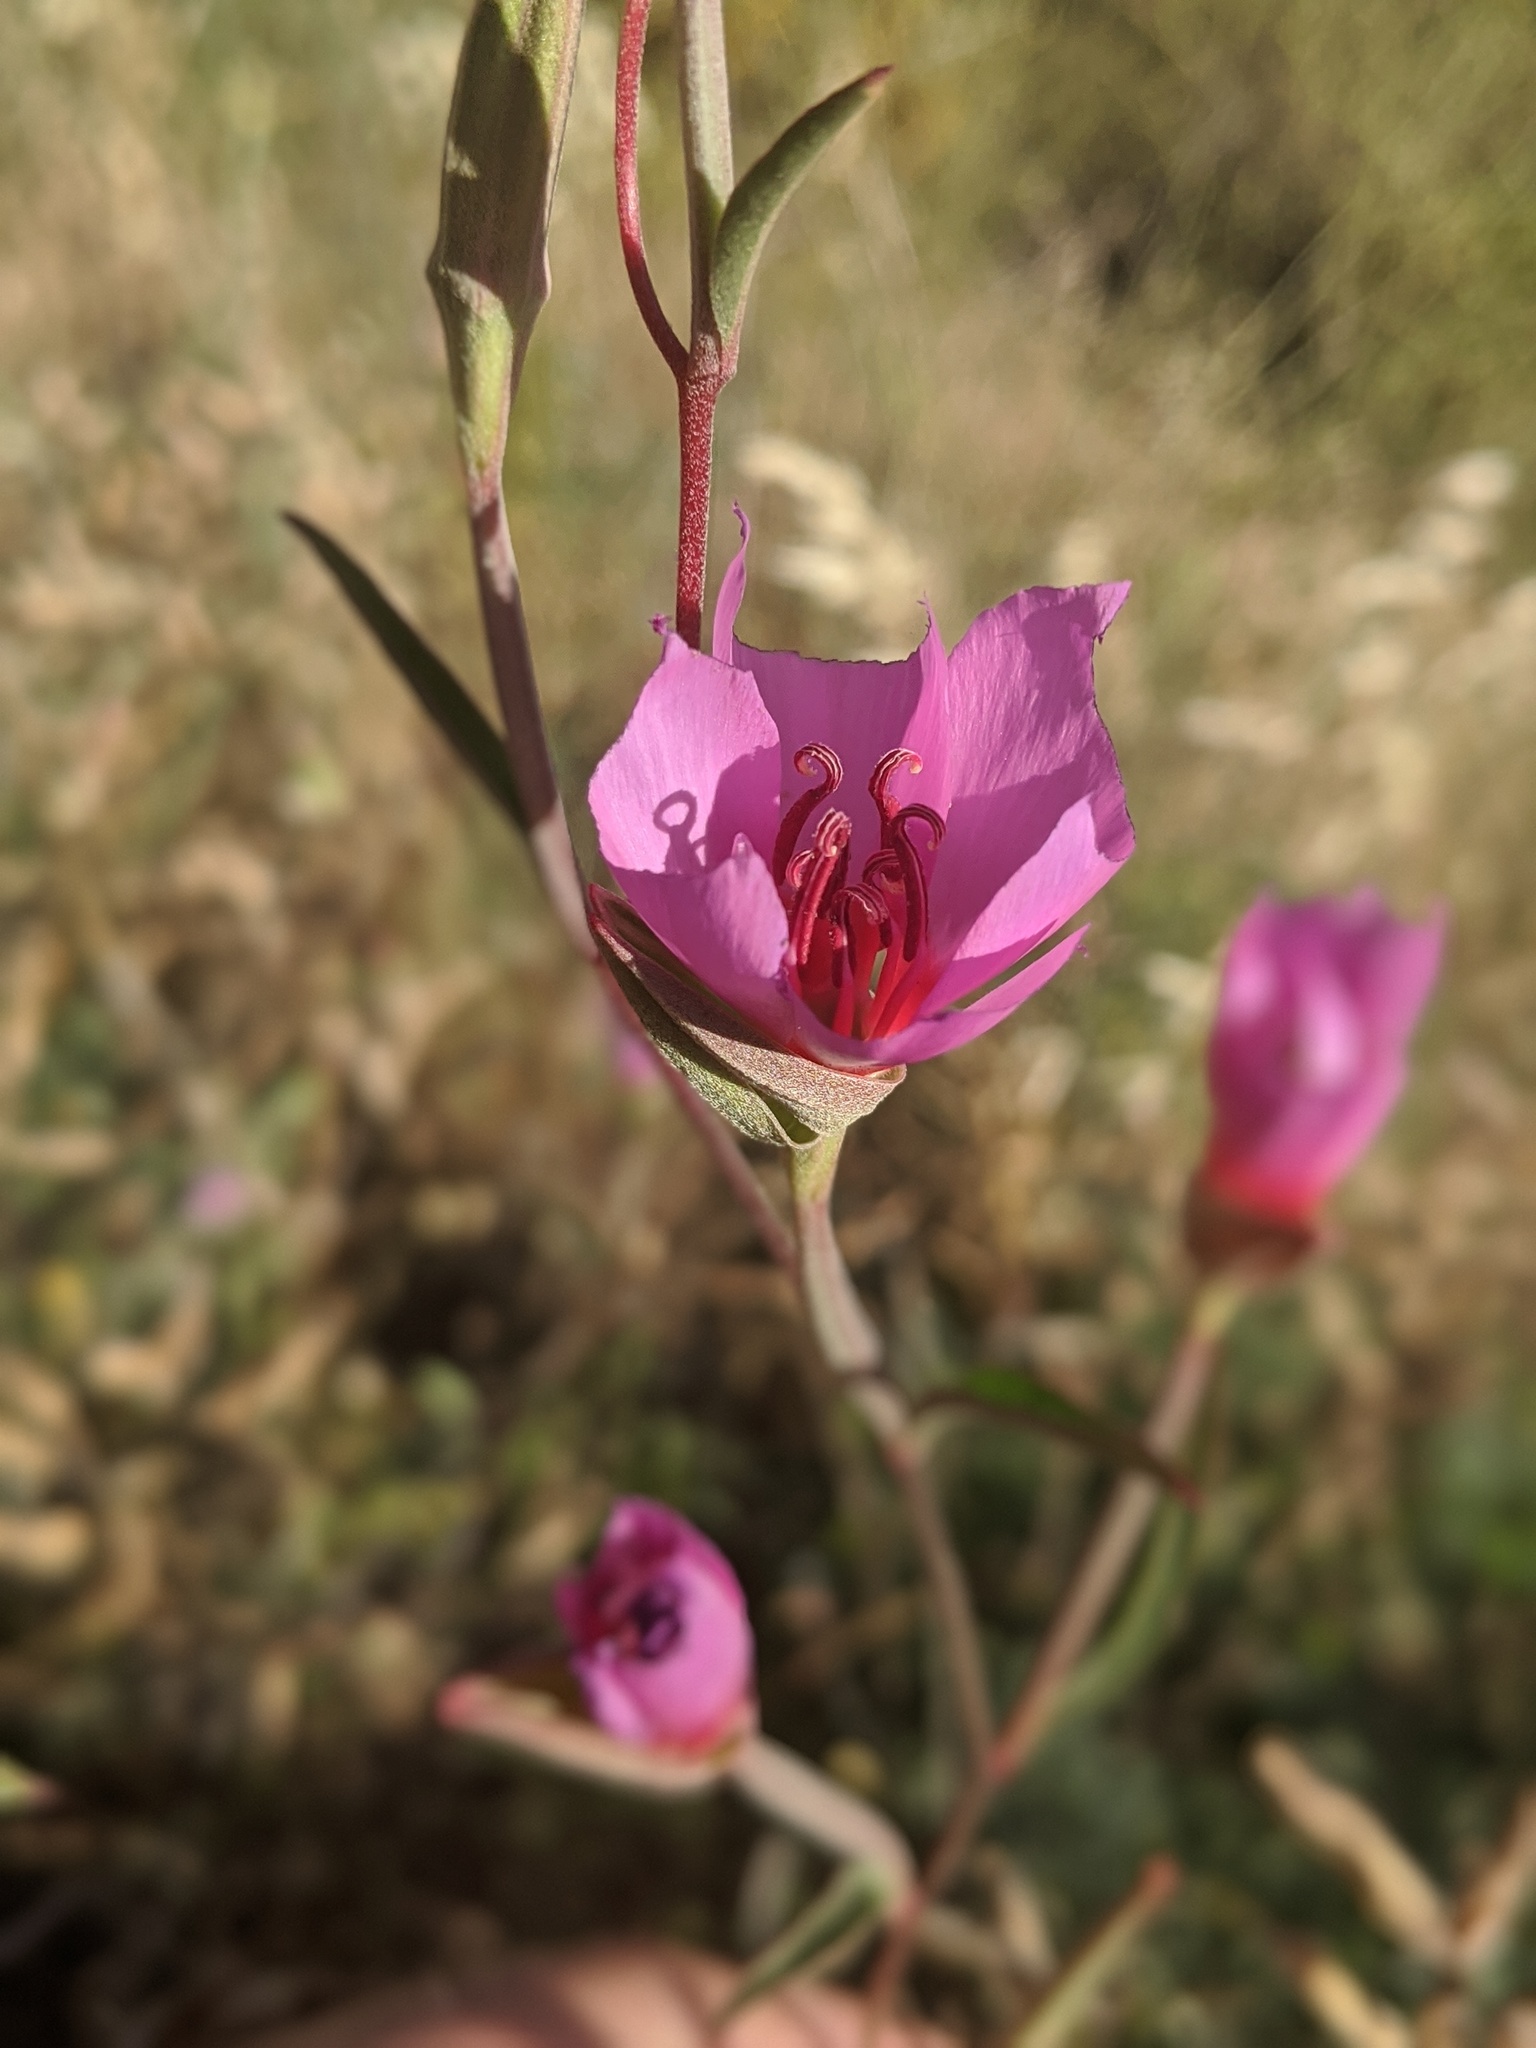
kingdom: Plantae
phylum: Tracheophyta
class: Magnoliopsida
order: Myrtales
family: Onagraceae
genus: Clarkia
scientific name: Clarkia rubicunda
